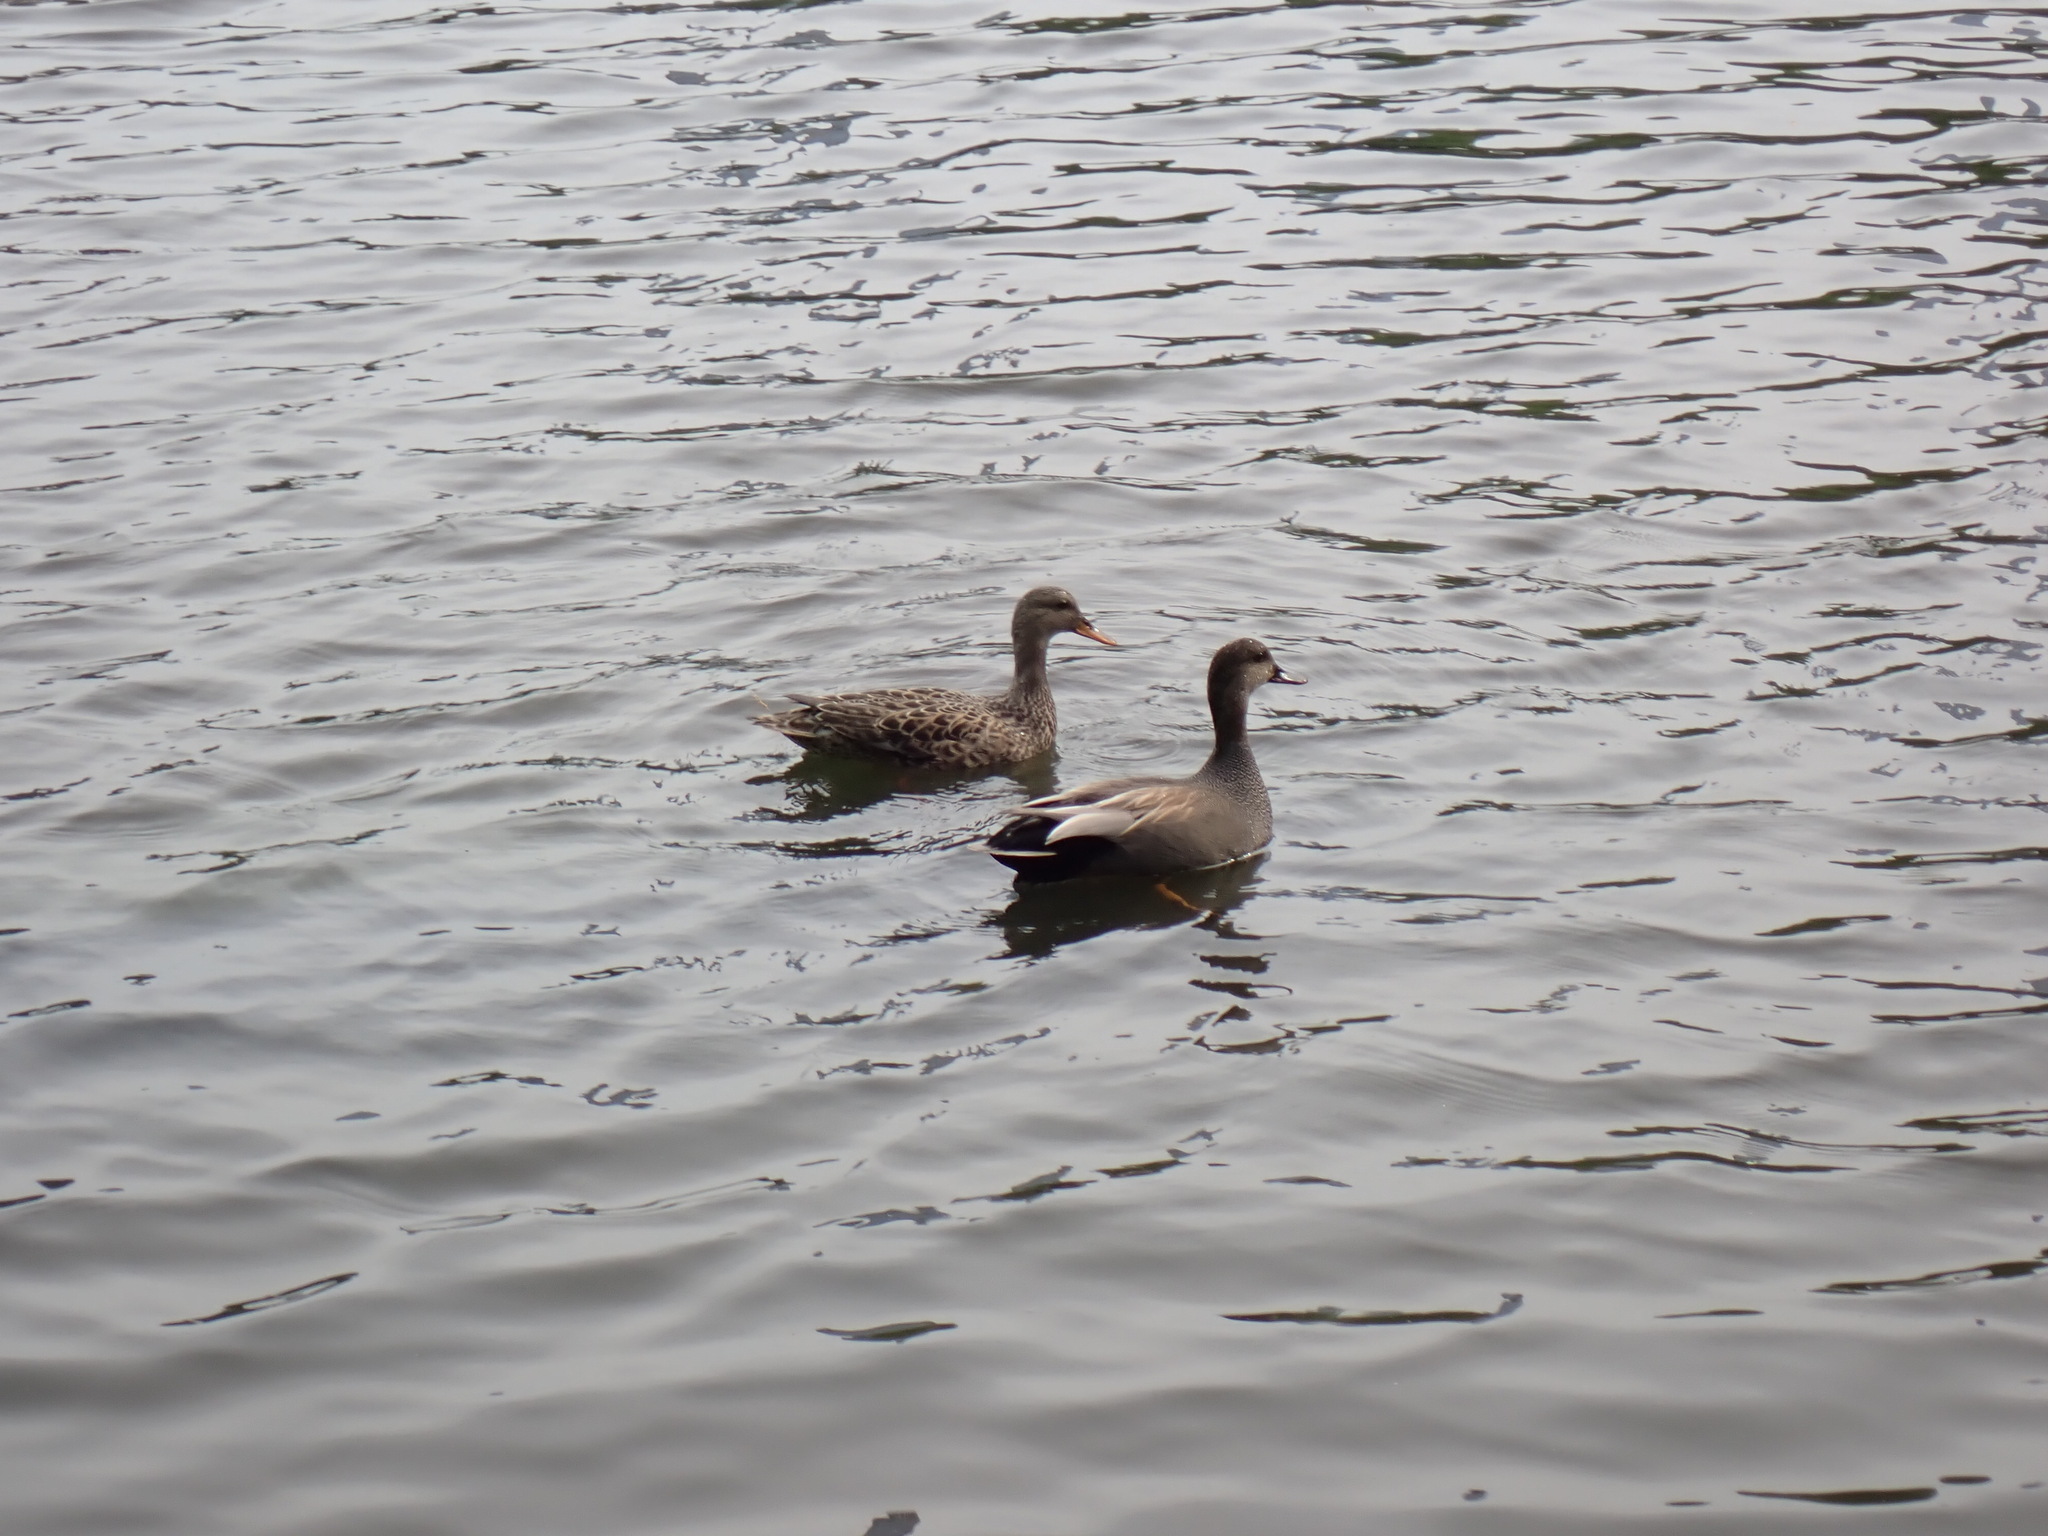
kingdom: Animalia
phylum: Chordata
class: Aves
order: Anseriformes
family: Anatidae
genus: Mareca
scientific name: Mareca strepera
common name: Gadwall
